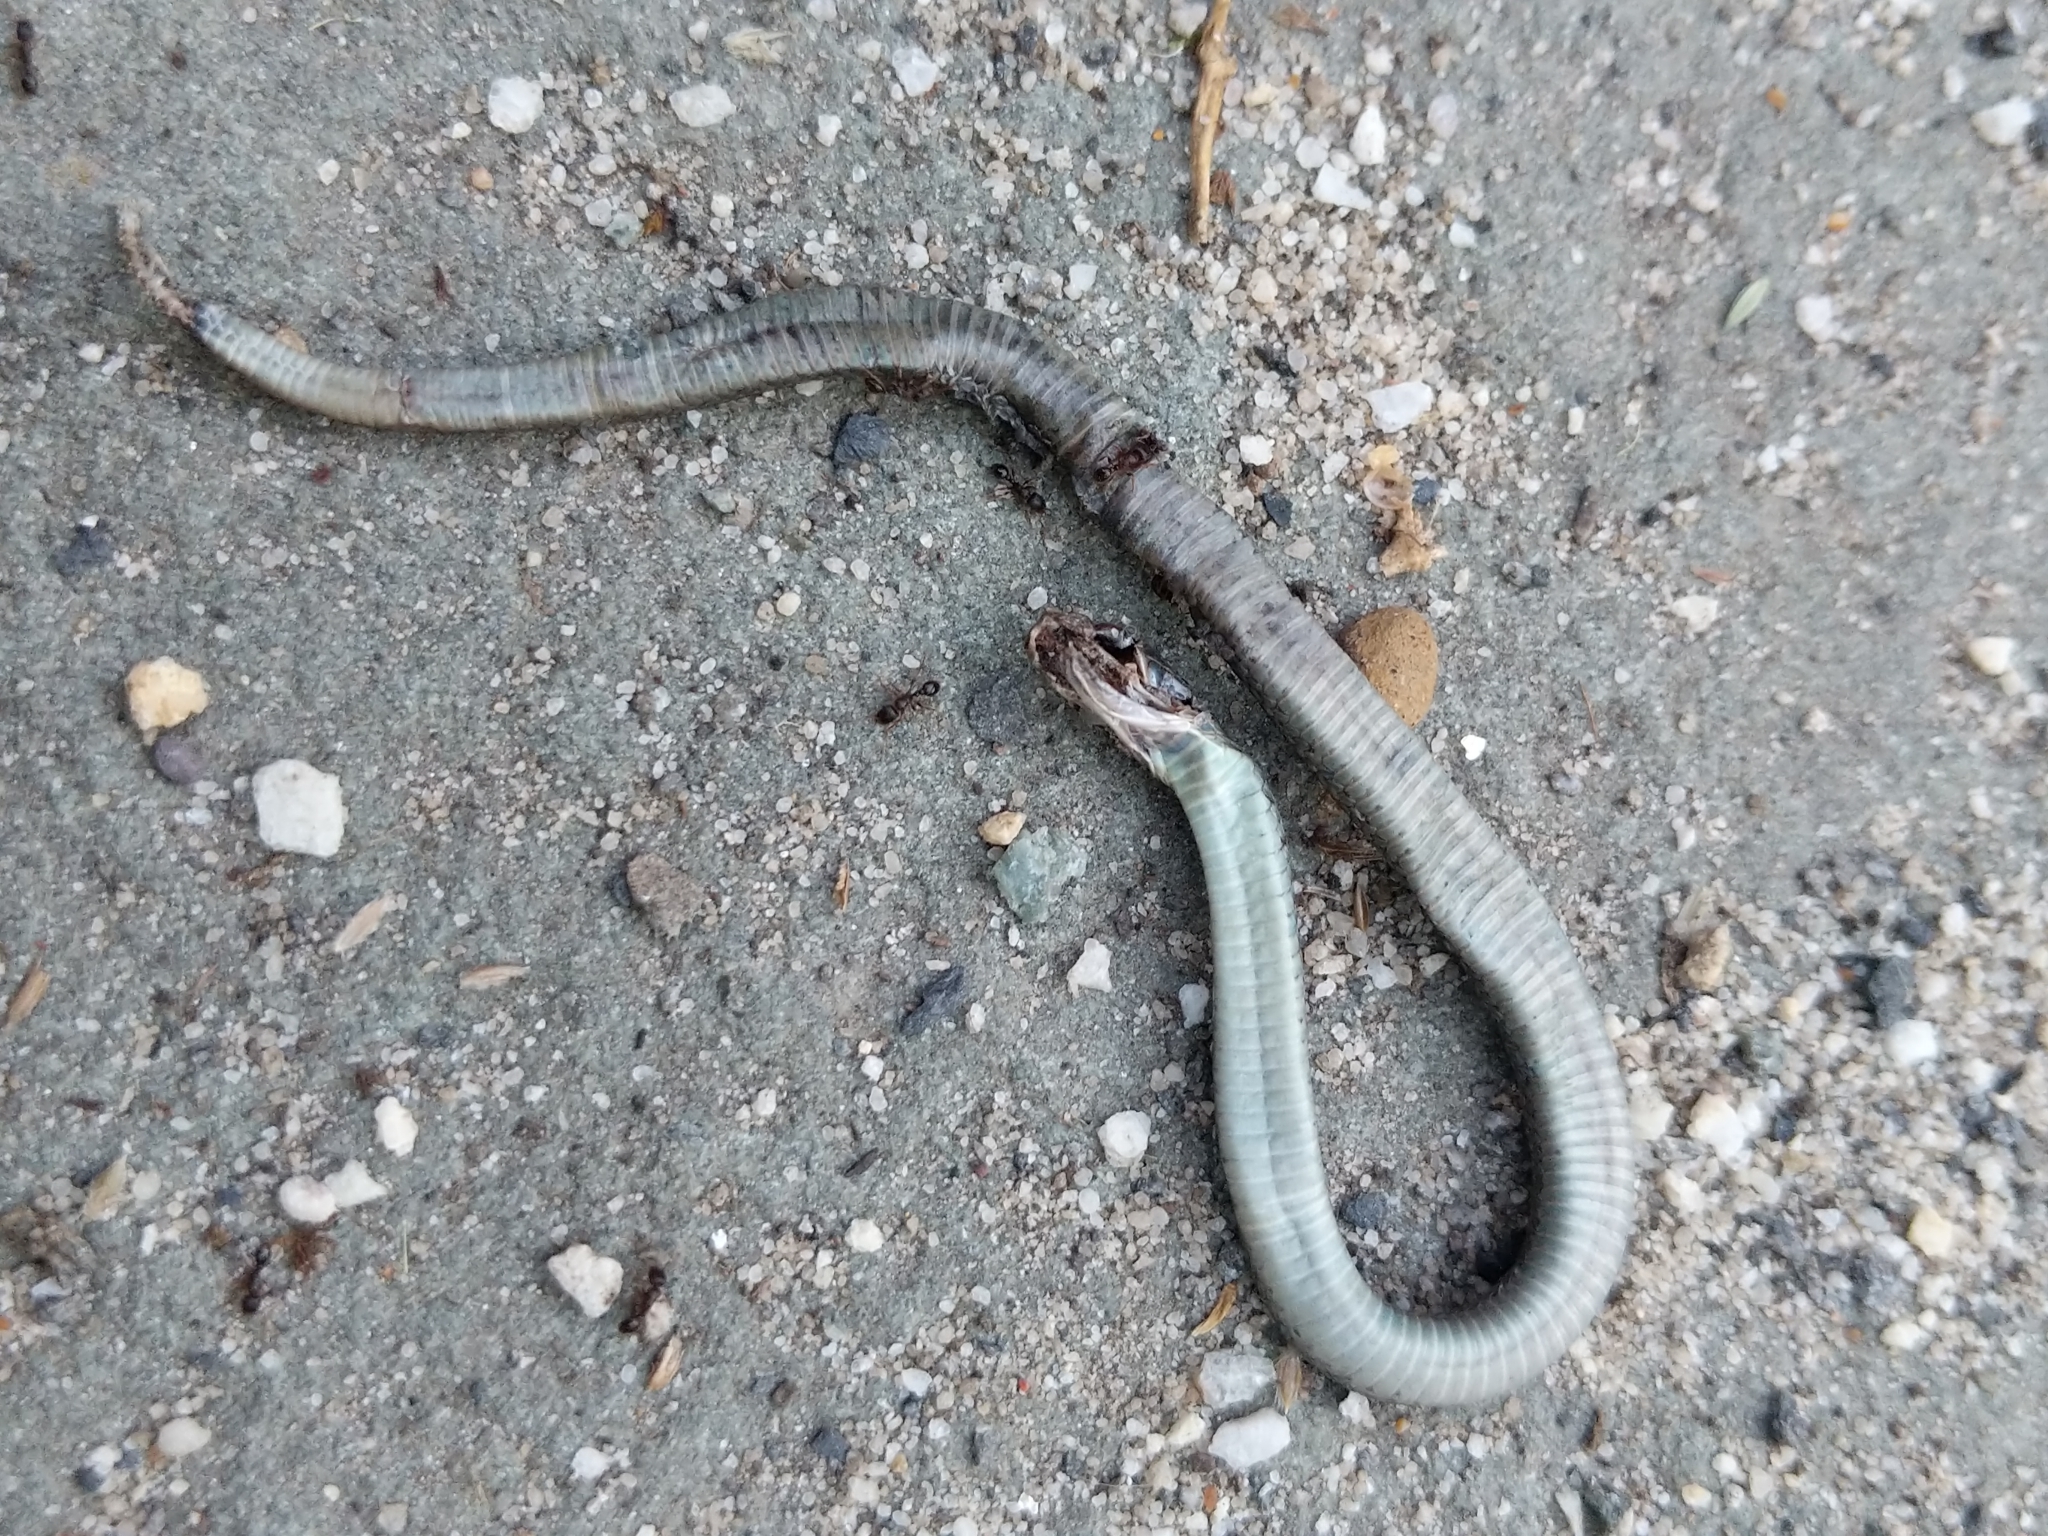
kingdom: Animalia
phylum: Chordata
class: Squamata
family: Colubridae
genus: Thamnophis
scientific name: Thamnophis sirtalis
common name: Common garter snake
